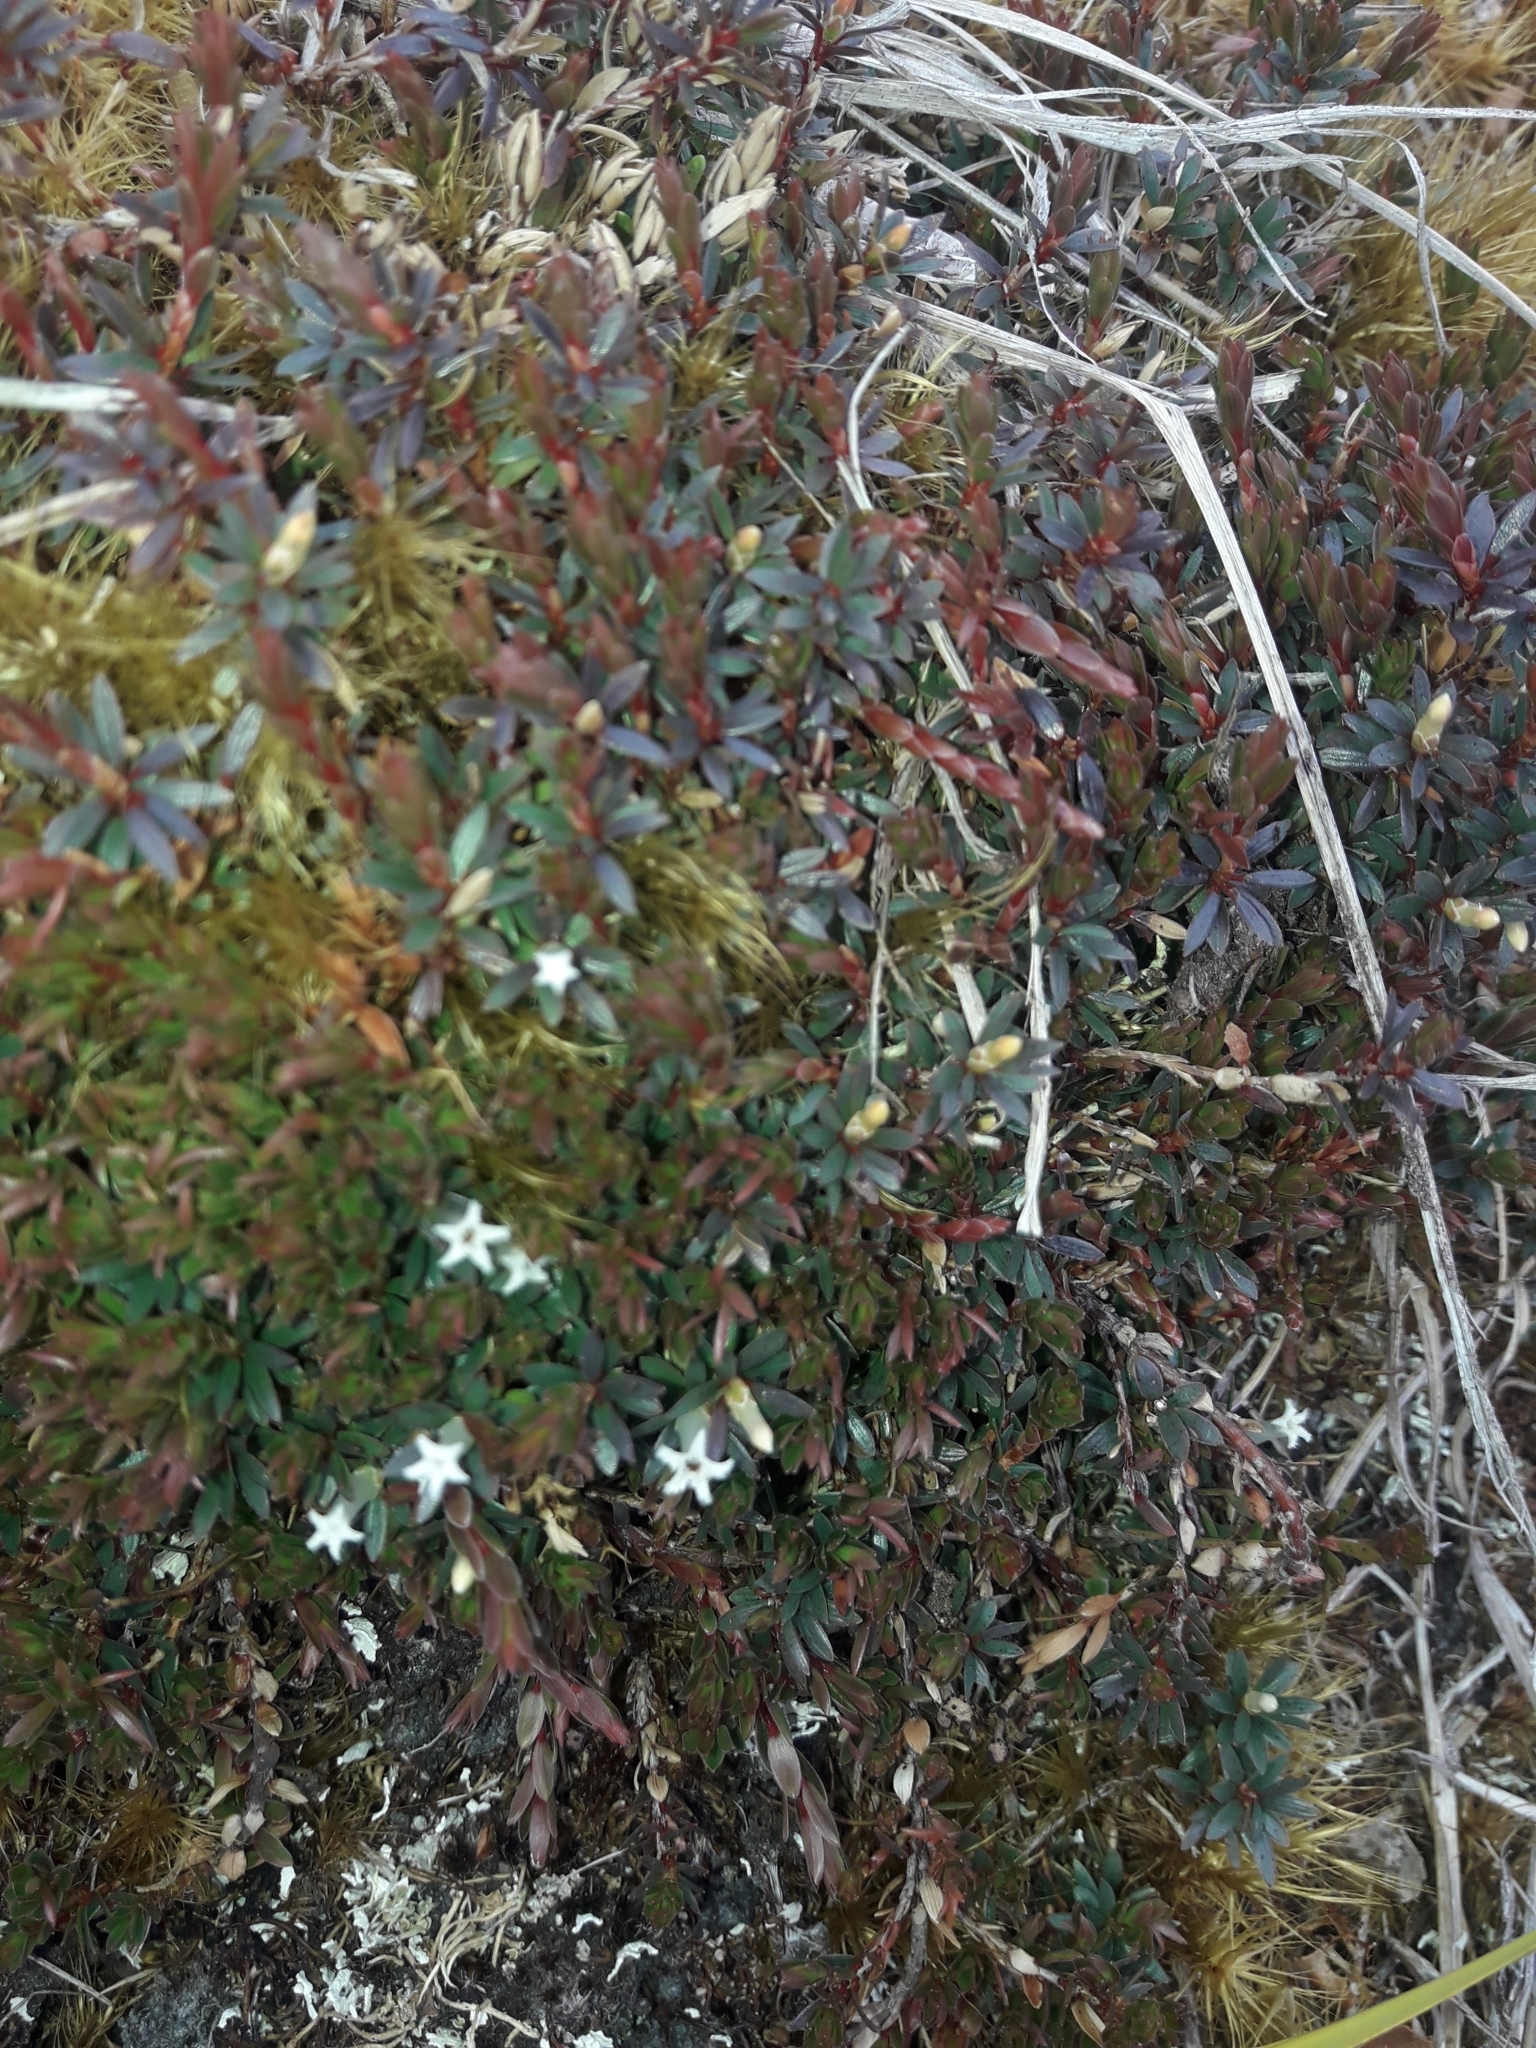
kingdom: Plantae
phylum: Tracheophyta
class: Magnoliopsida
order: Ericales
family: Ericaceae
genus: Pentachondra
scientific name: Pentachondra pumila
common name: Carpet-heath
